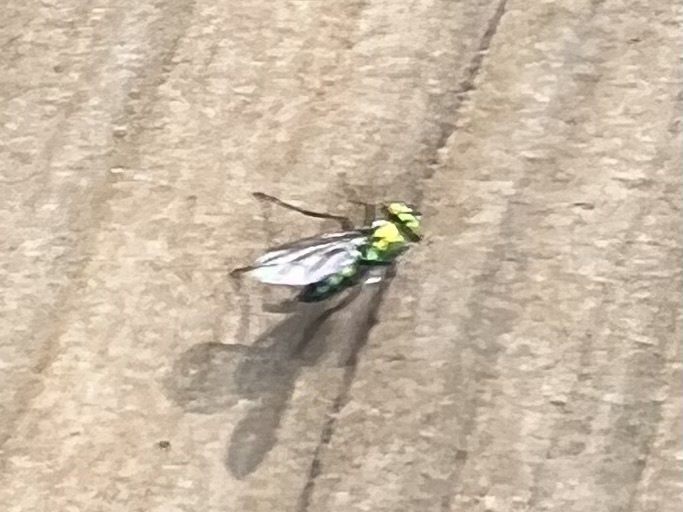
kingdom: Animalia
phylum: Arthropoda
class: Insecta
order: Diptera
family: Dolichopodidae
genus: Condylostylus
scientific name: Condylostylus longicornis
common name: Long-legged fly
